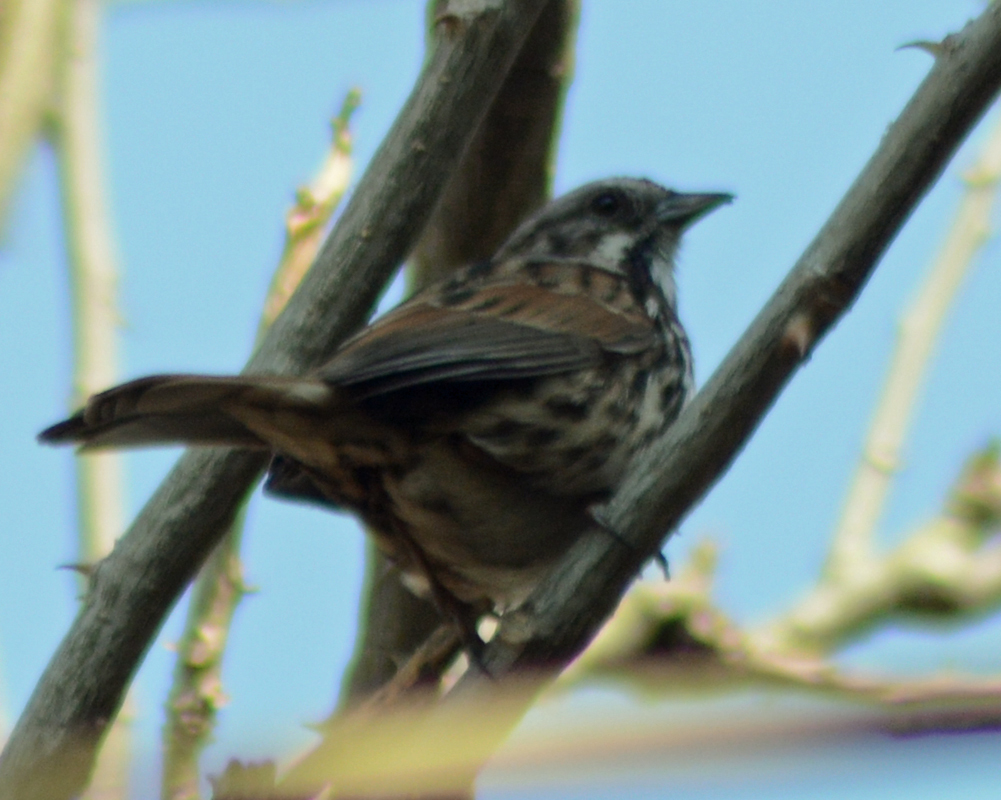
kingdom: Animalia
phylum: Chordata
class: Aves
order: Passeriformes
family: Passerellidae
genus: Melospiza
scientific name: Melospiza melodia
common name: Song sparrow
